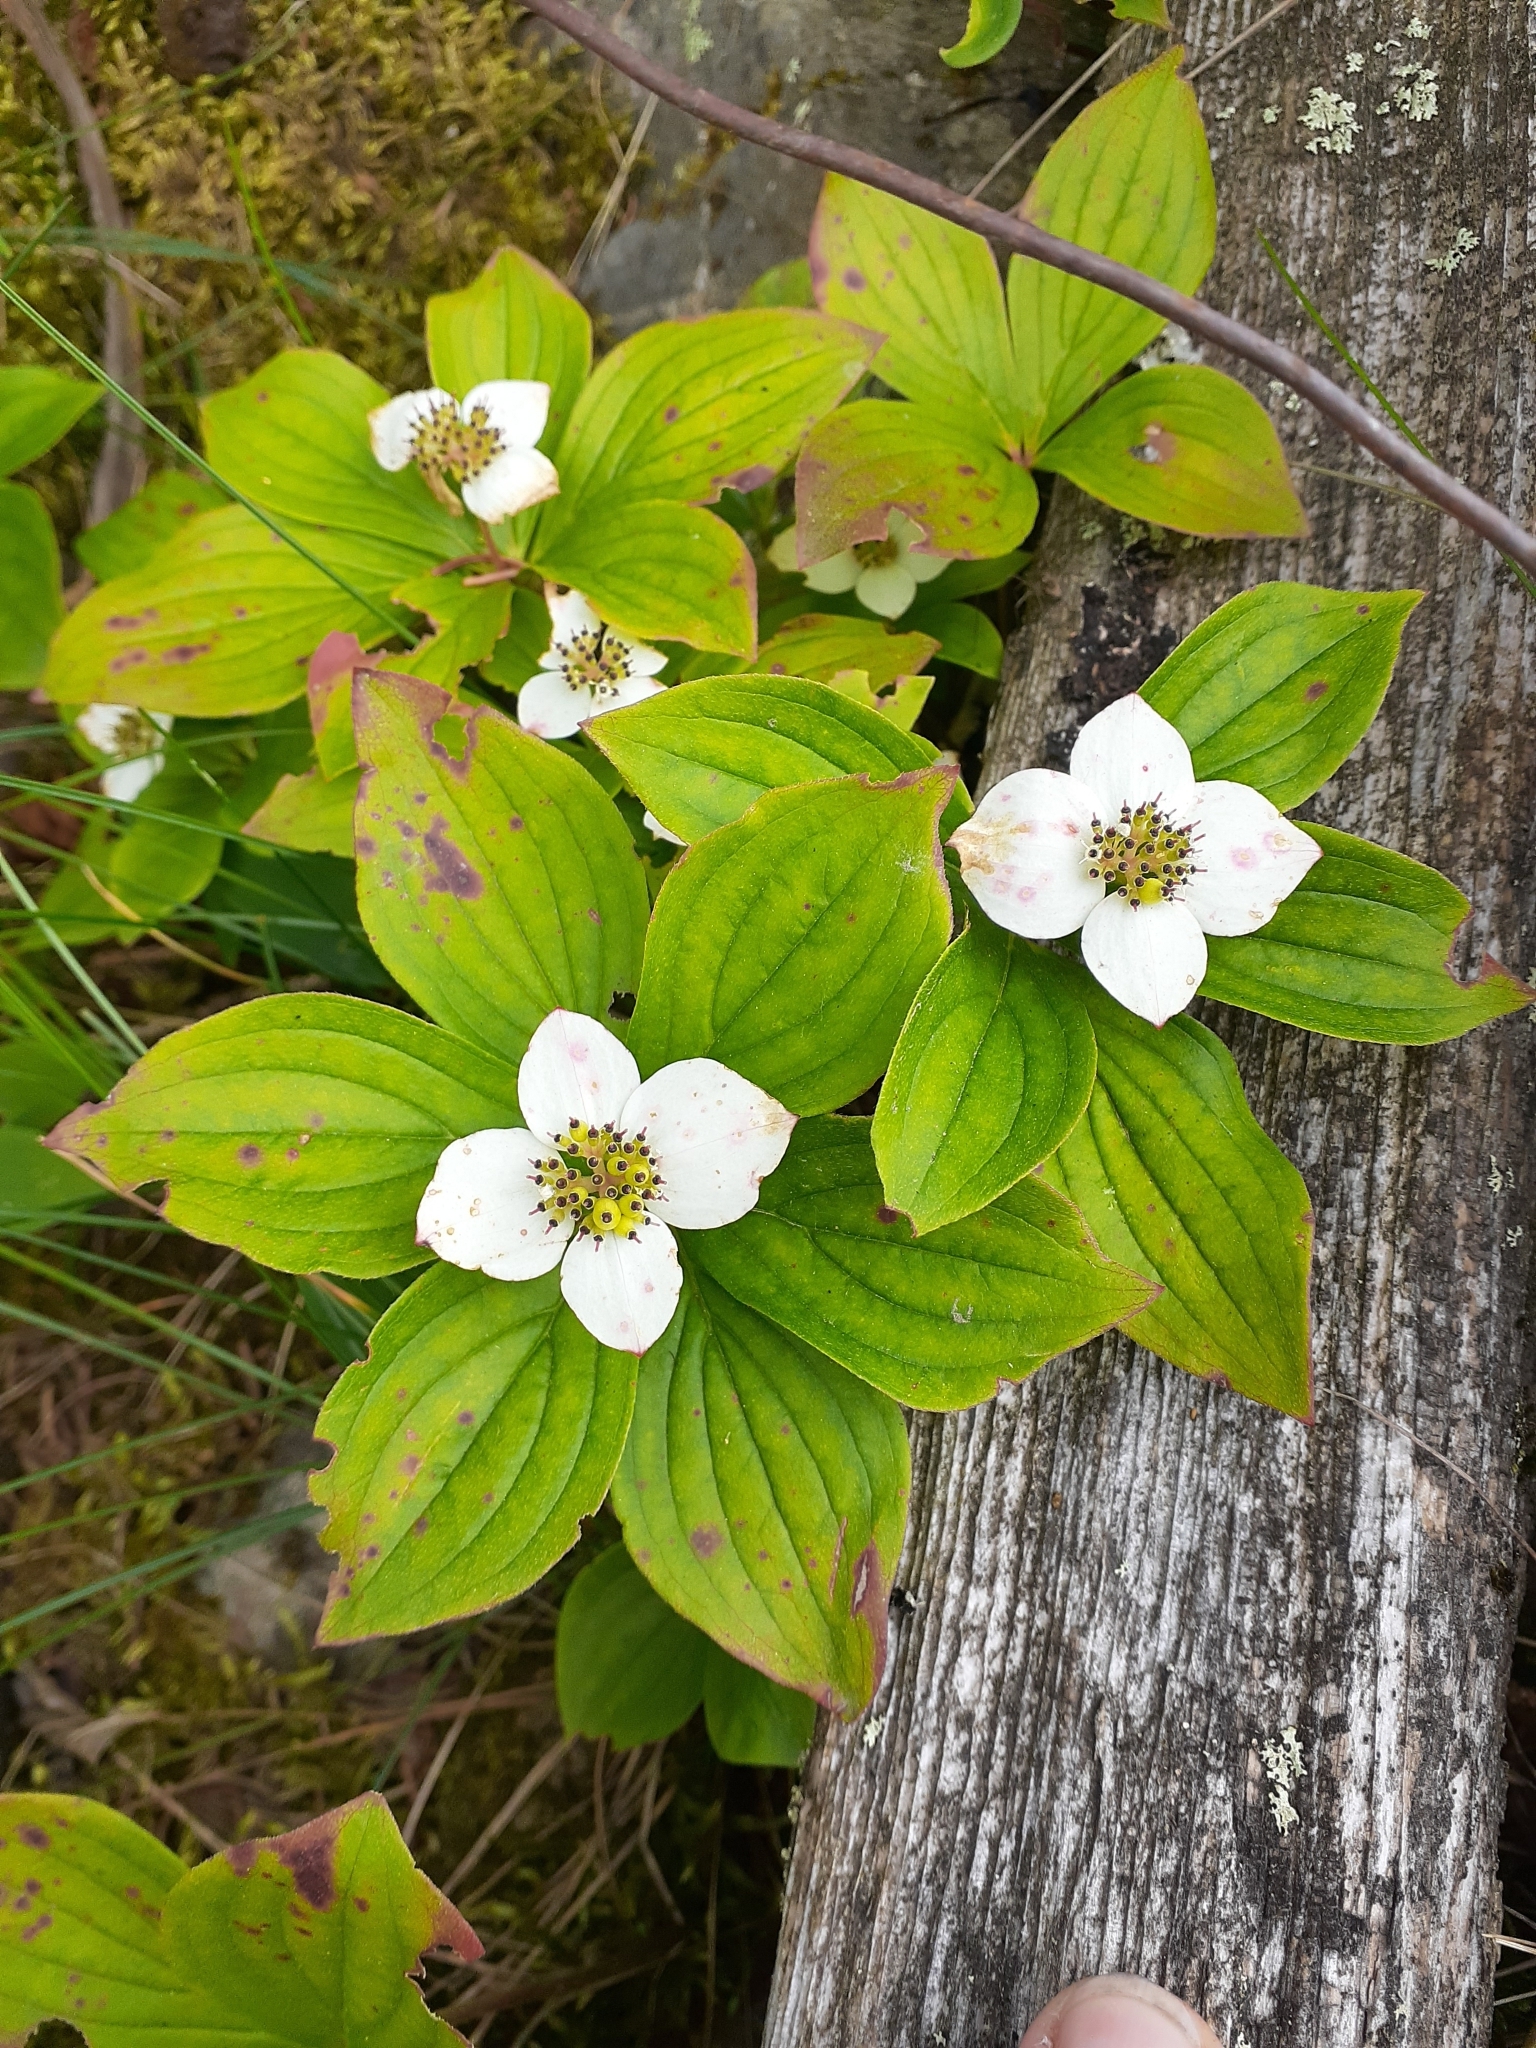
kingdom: Plantae
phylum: Tracheophyta
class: Magnoliopsida
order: Cornales
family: Cornaceae
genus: Cornus
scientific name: Cornus canadensis
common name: Creeping dogwood
